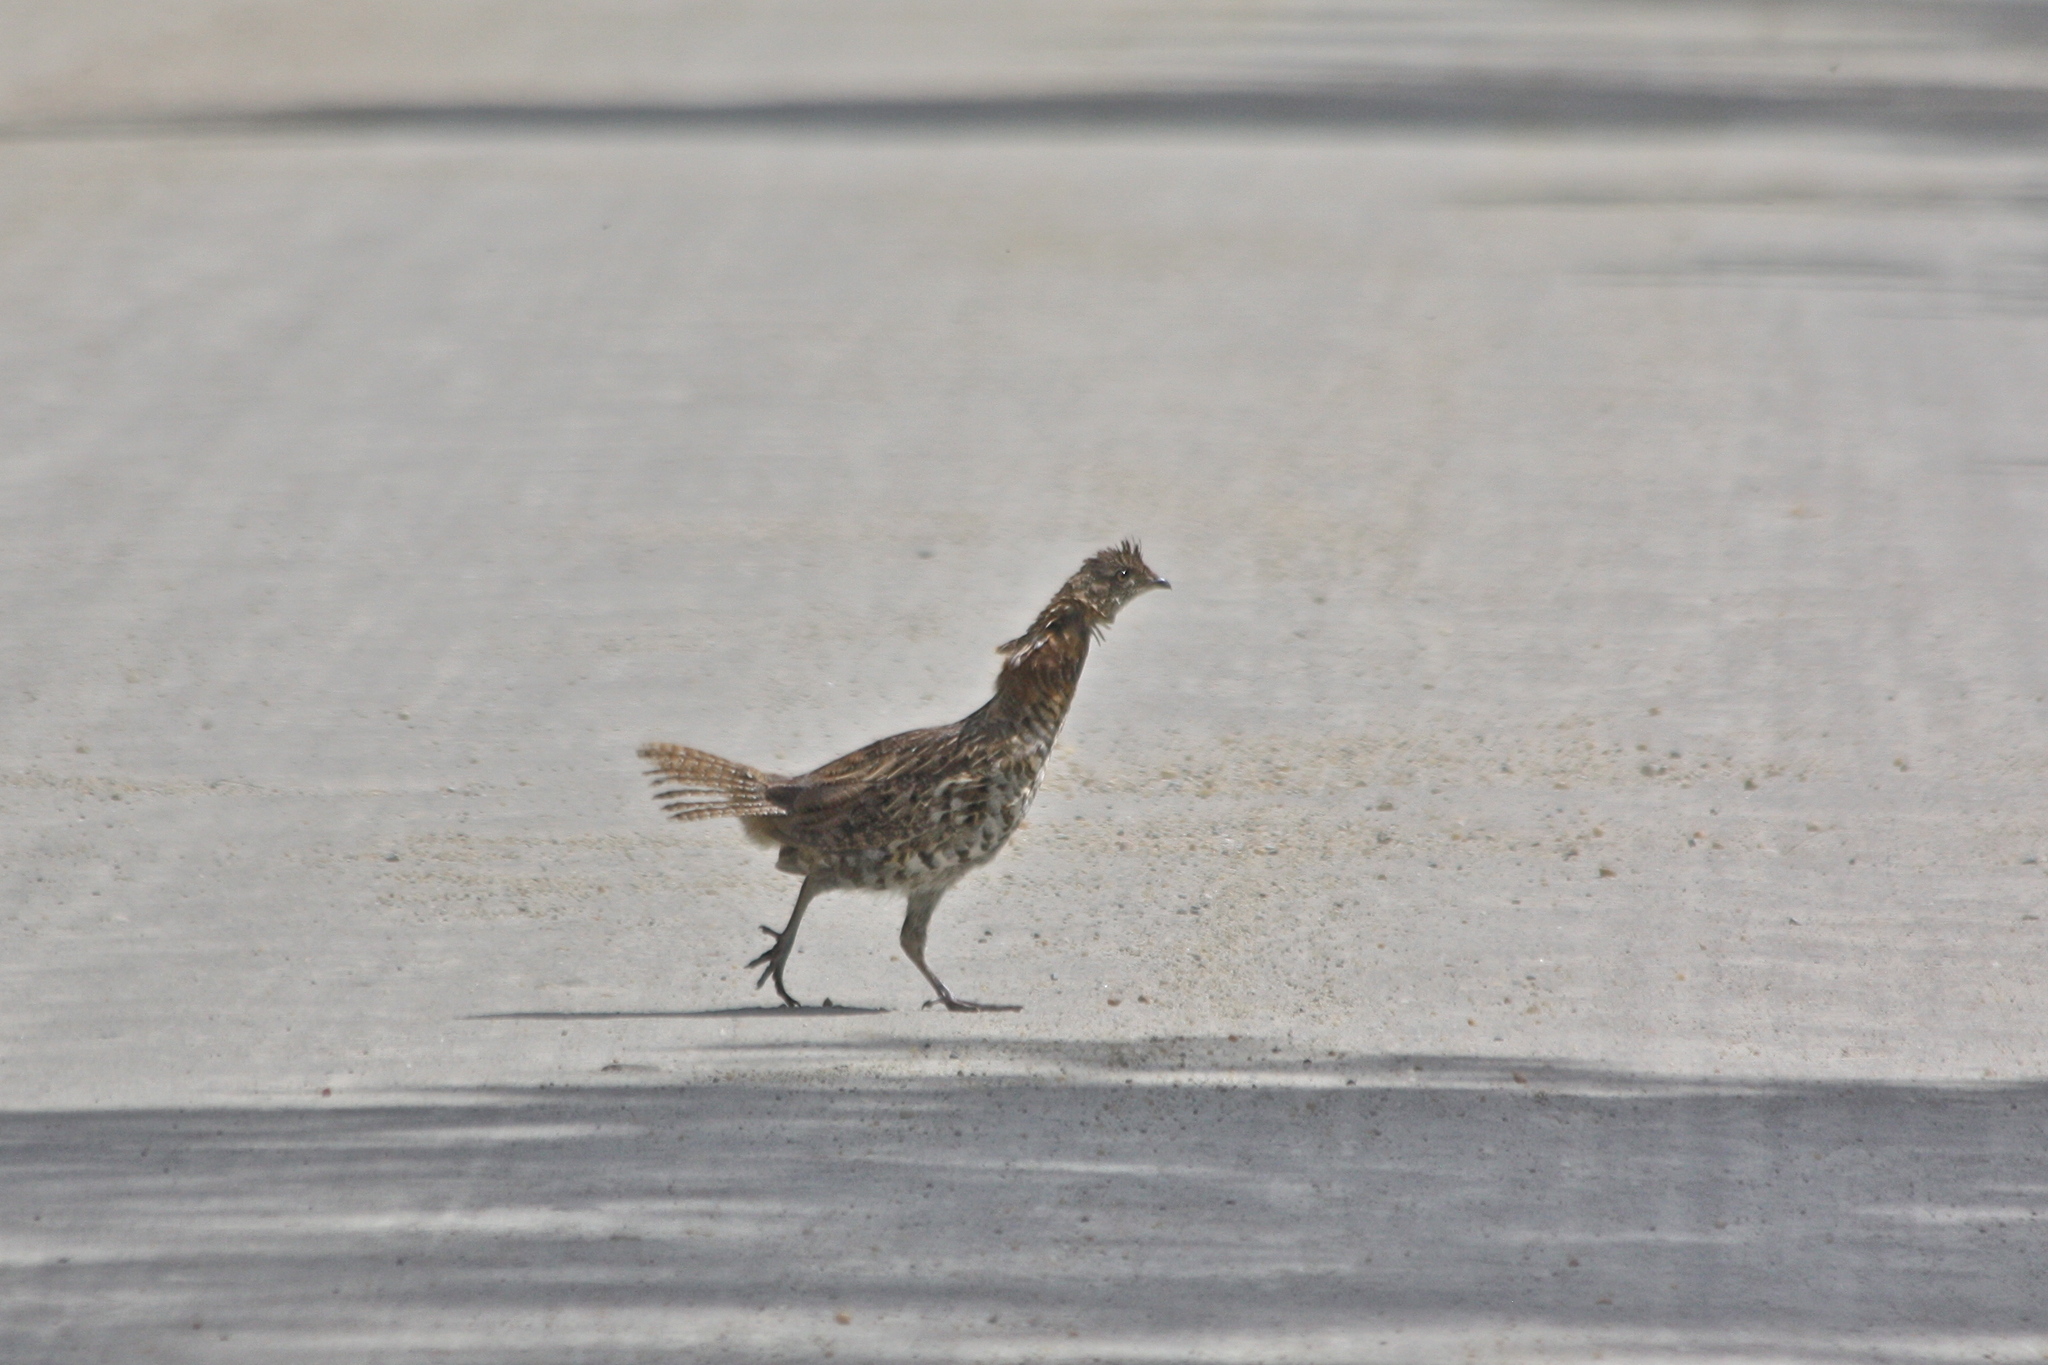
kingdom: Animalia
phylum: Chordata
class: Aves
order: Galliformes
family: Phasianidae
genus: Bonasa
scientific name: Bonasa umbellus
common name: Ruffed grouse
